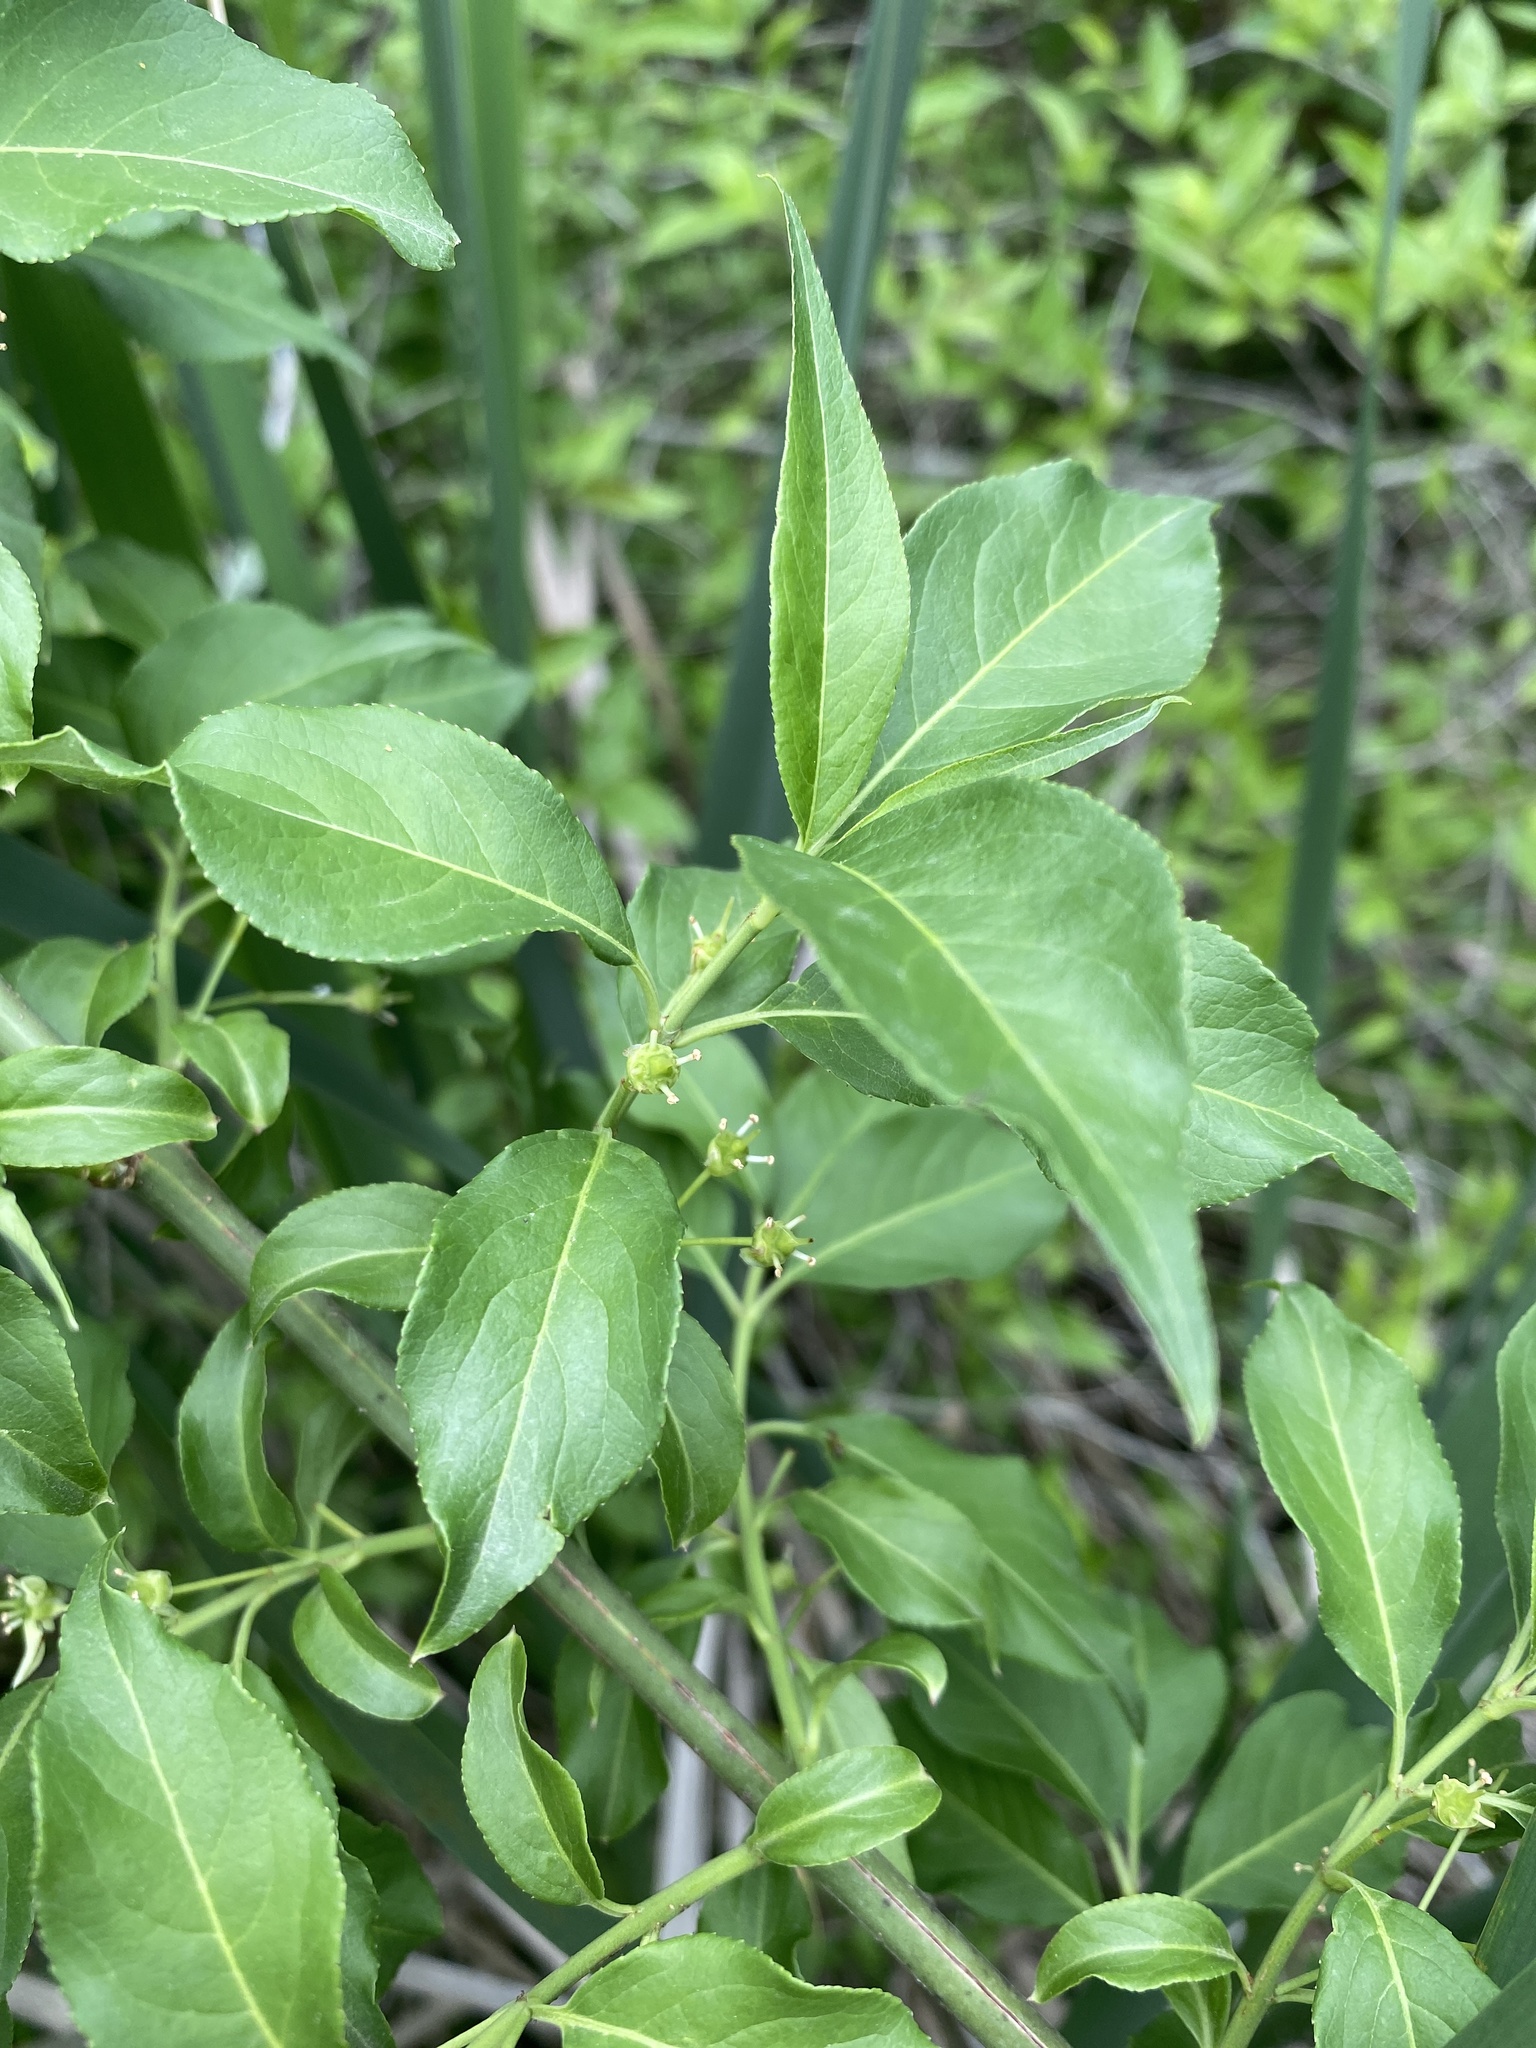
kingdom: Plantae
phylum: Tracheophyta
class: Magnoliopsida
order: Celastrales
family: Celastraceae
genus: Euonymus
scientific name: Euonymus europaeus
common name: Spindle
